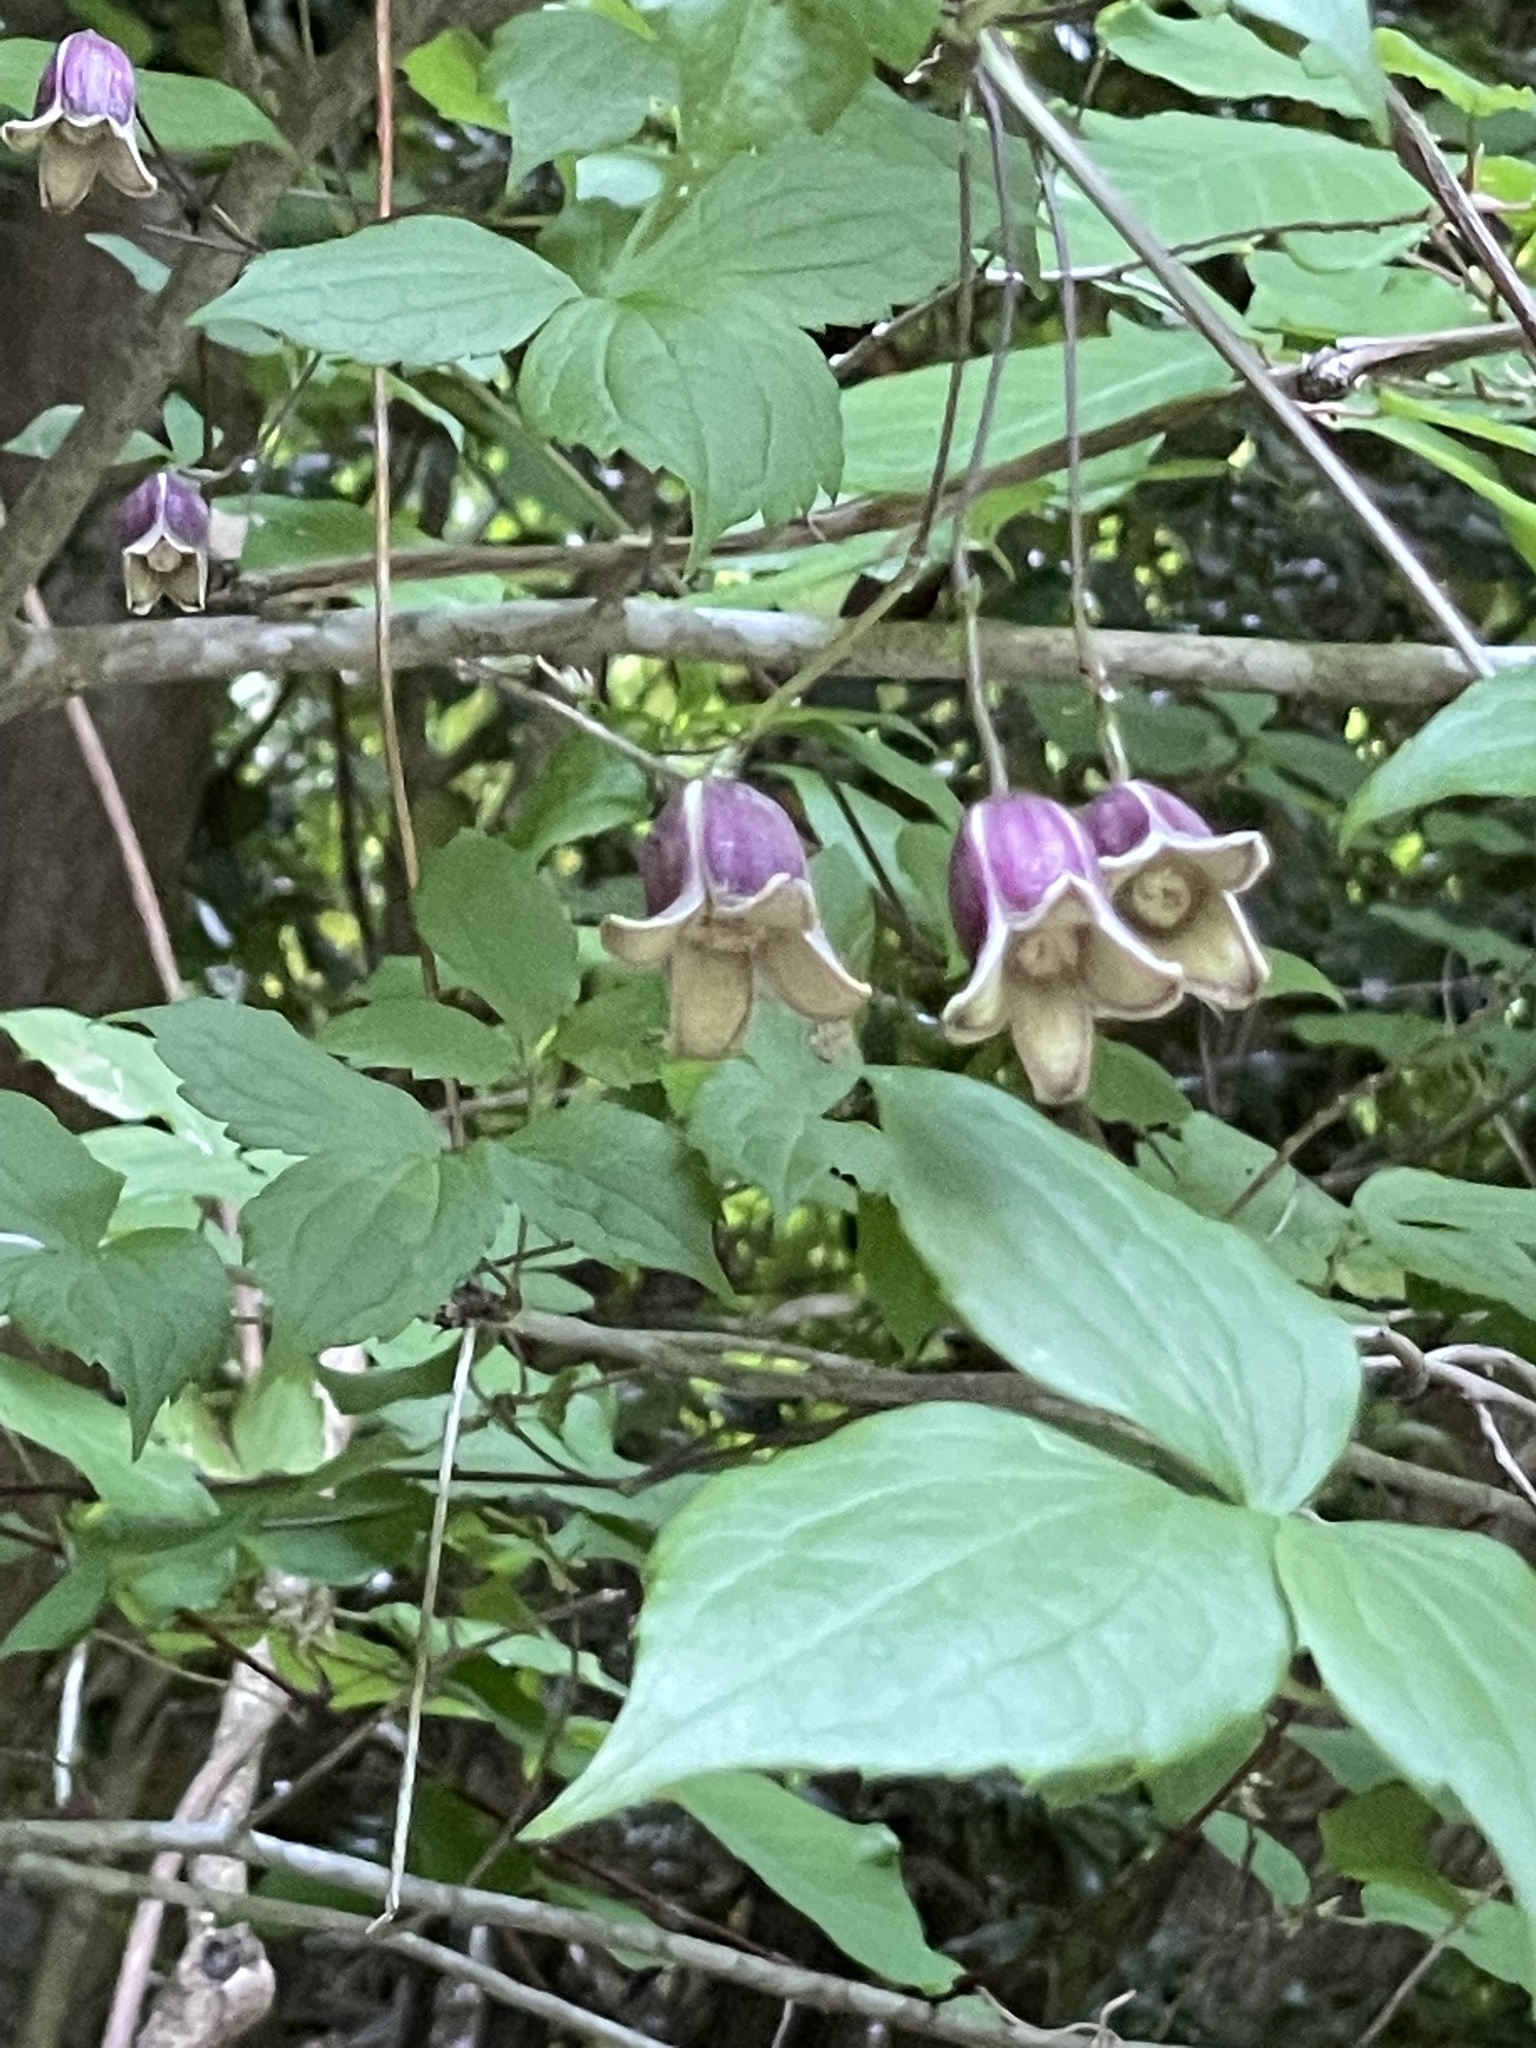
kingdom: Plantae
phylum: Tracheophyta
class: Magnoliopsida
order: Ranunculales
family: Ranunculaceae
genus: Clematis
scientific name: Clematis japonica
